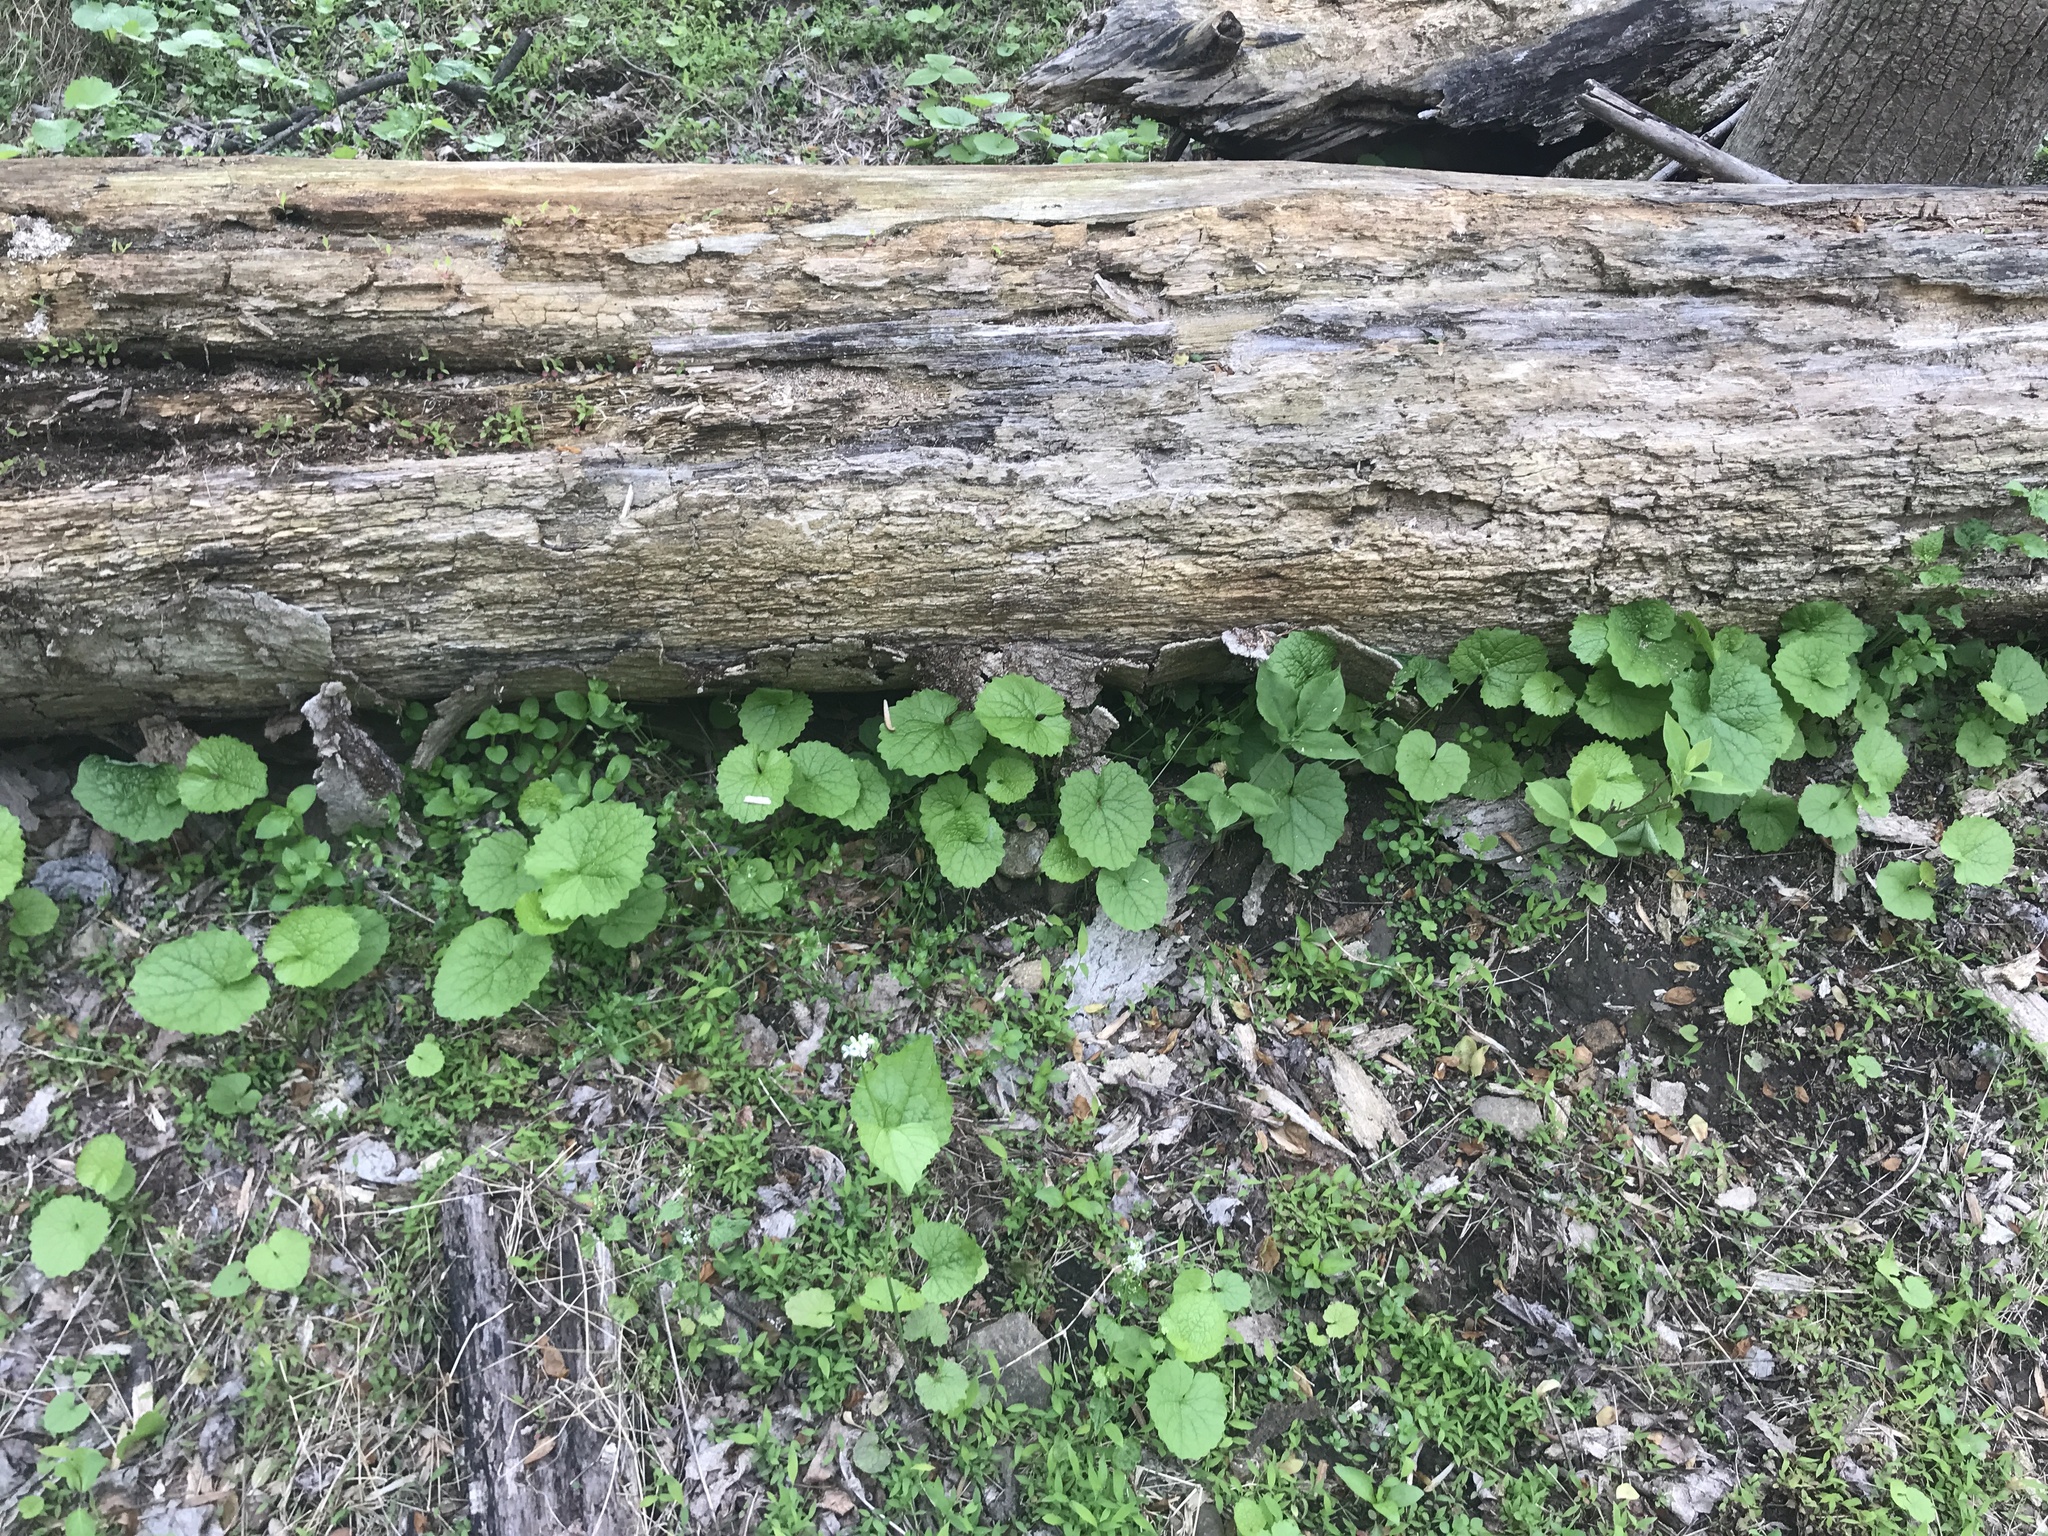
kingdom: Plantae
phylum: Tracheophyta
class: Magnoliopsida
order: Brassicales
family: Brassicaceae
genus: Alliaria
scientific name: Alliaria petiolata
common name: Garlic mustard
